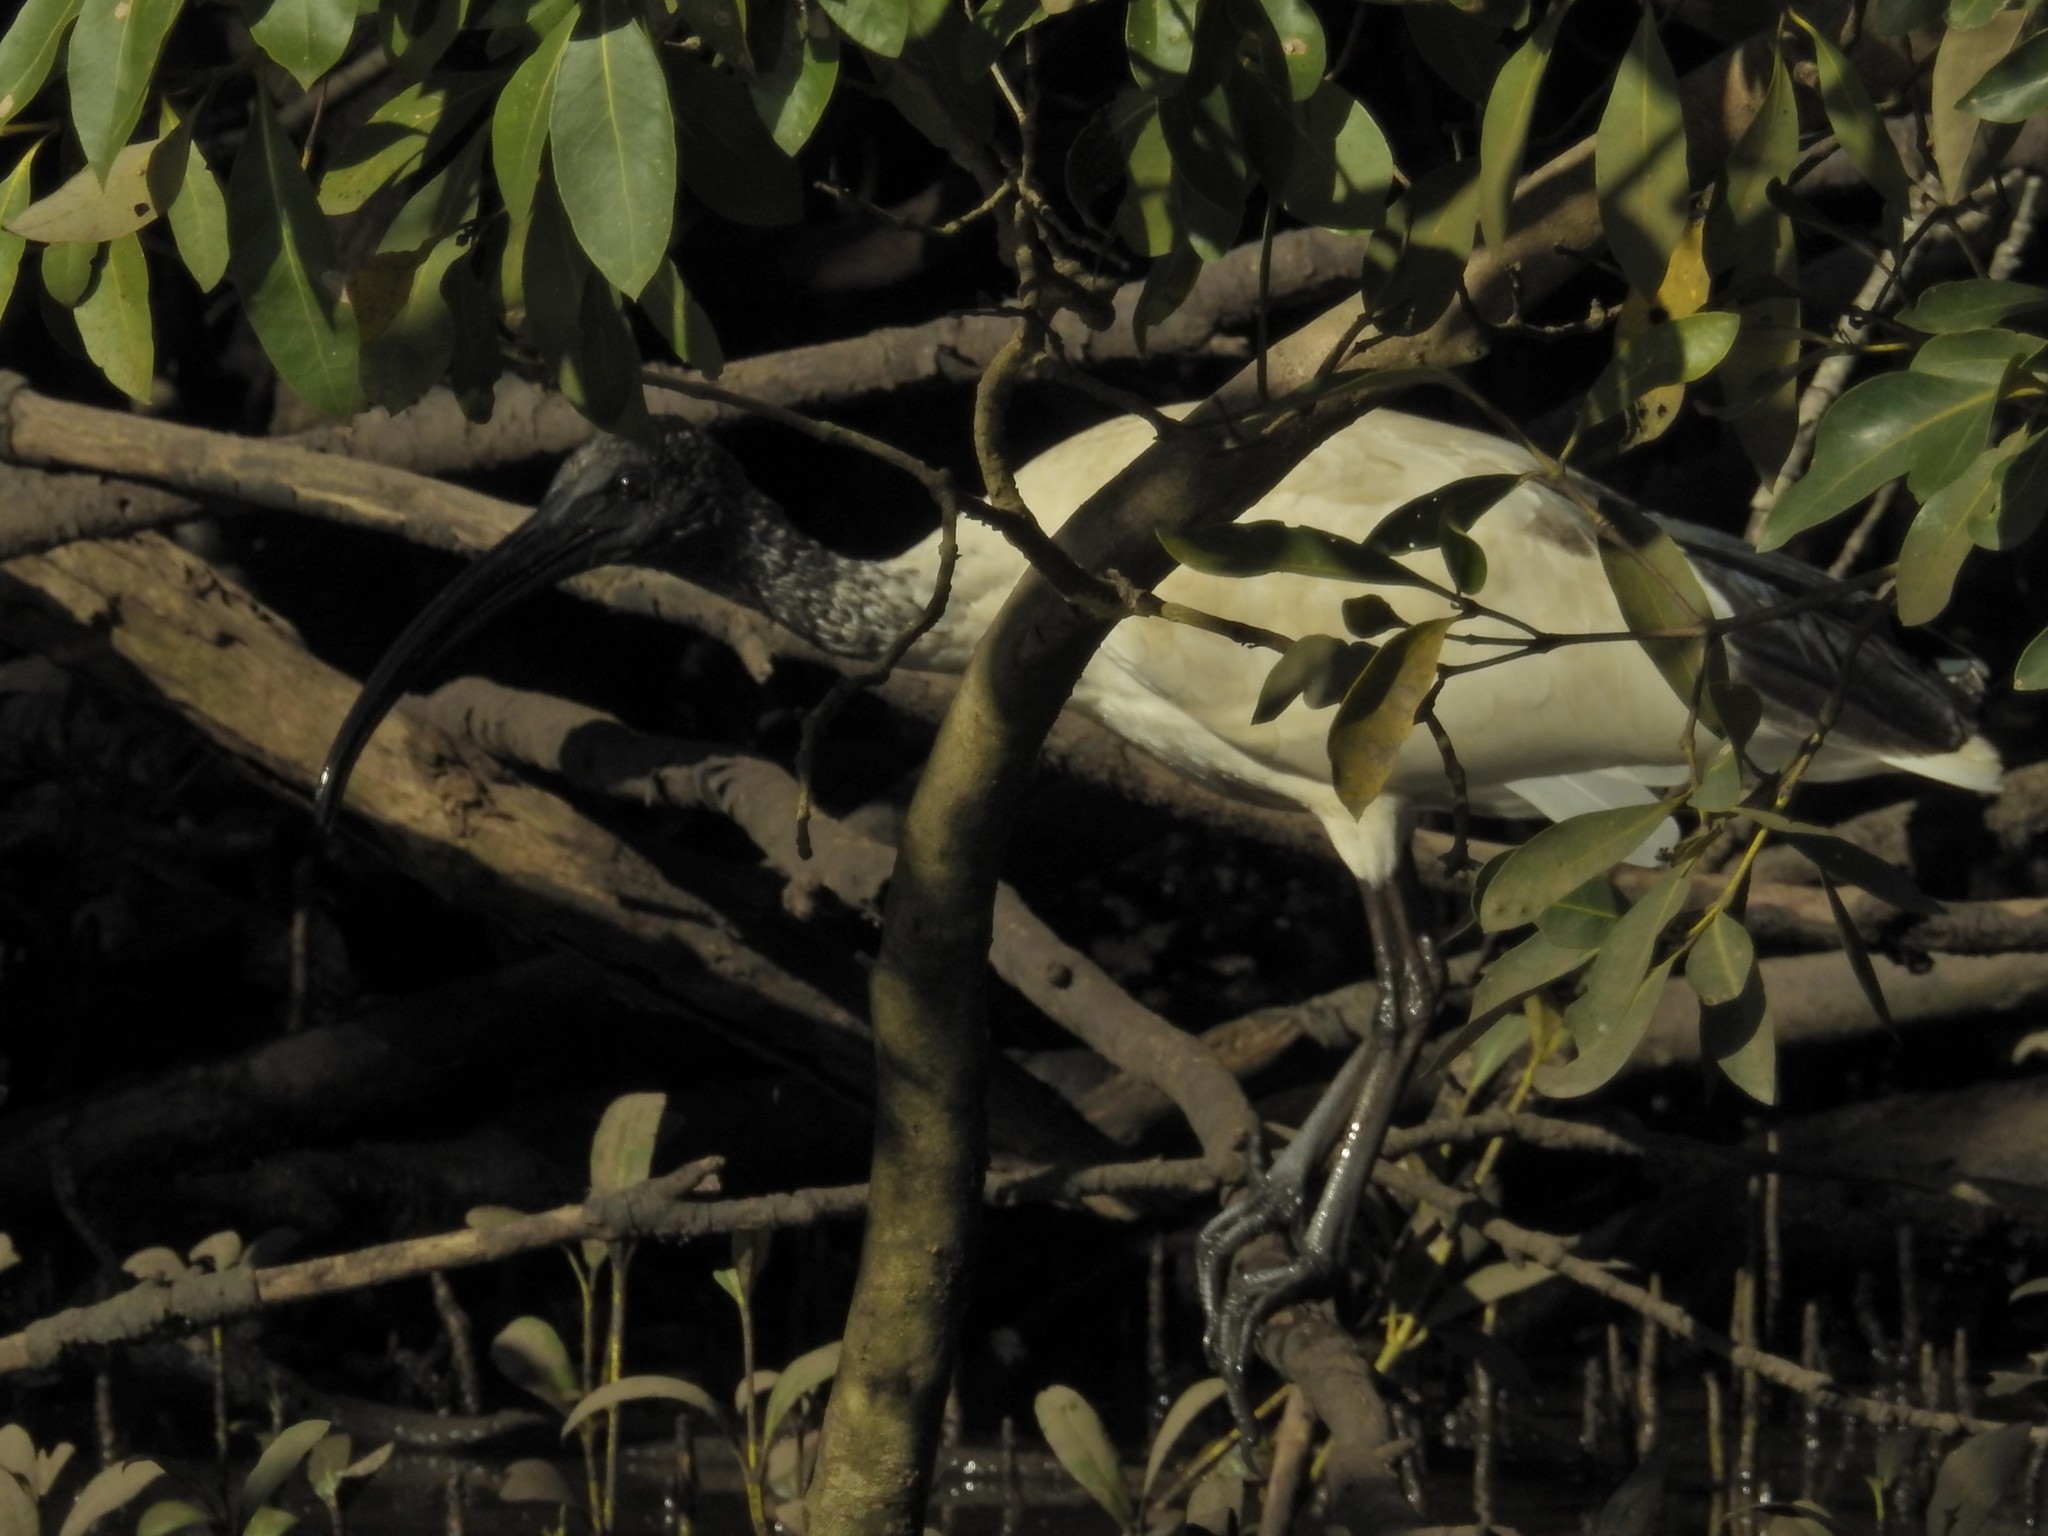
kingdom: Animalia
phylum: Chordata
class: Aves
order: Pelecaniformes
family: Threskiornithidae
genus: Threskiornis
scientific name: Threskiornis molucca
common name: Australian white ibis
